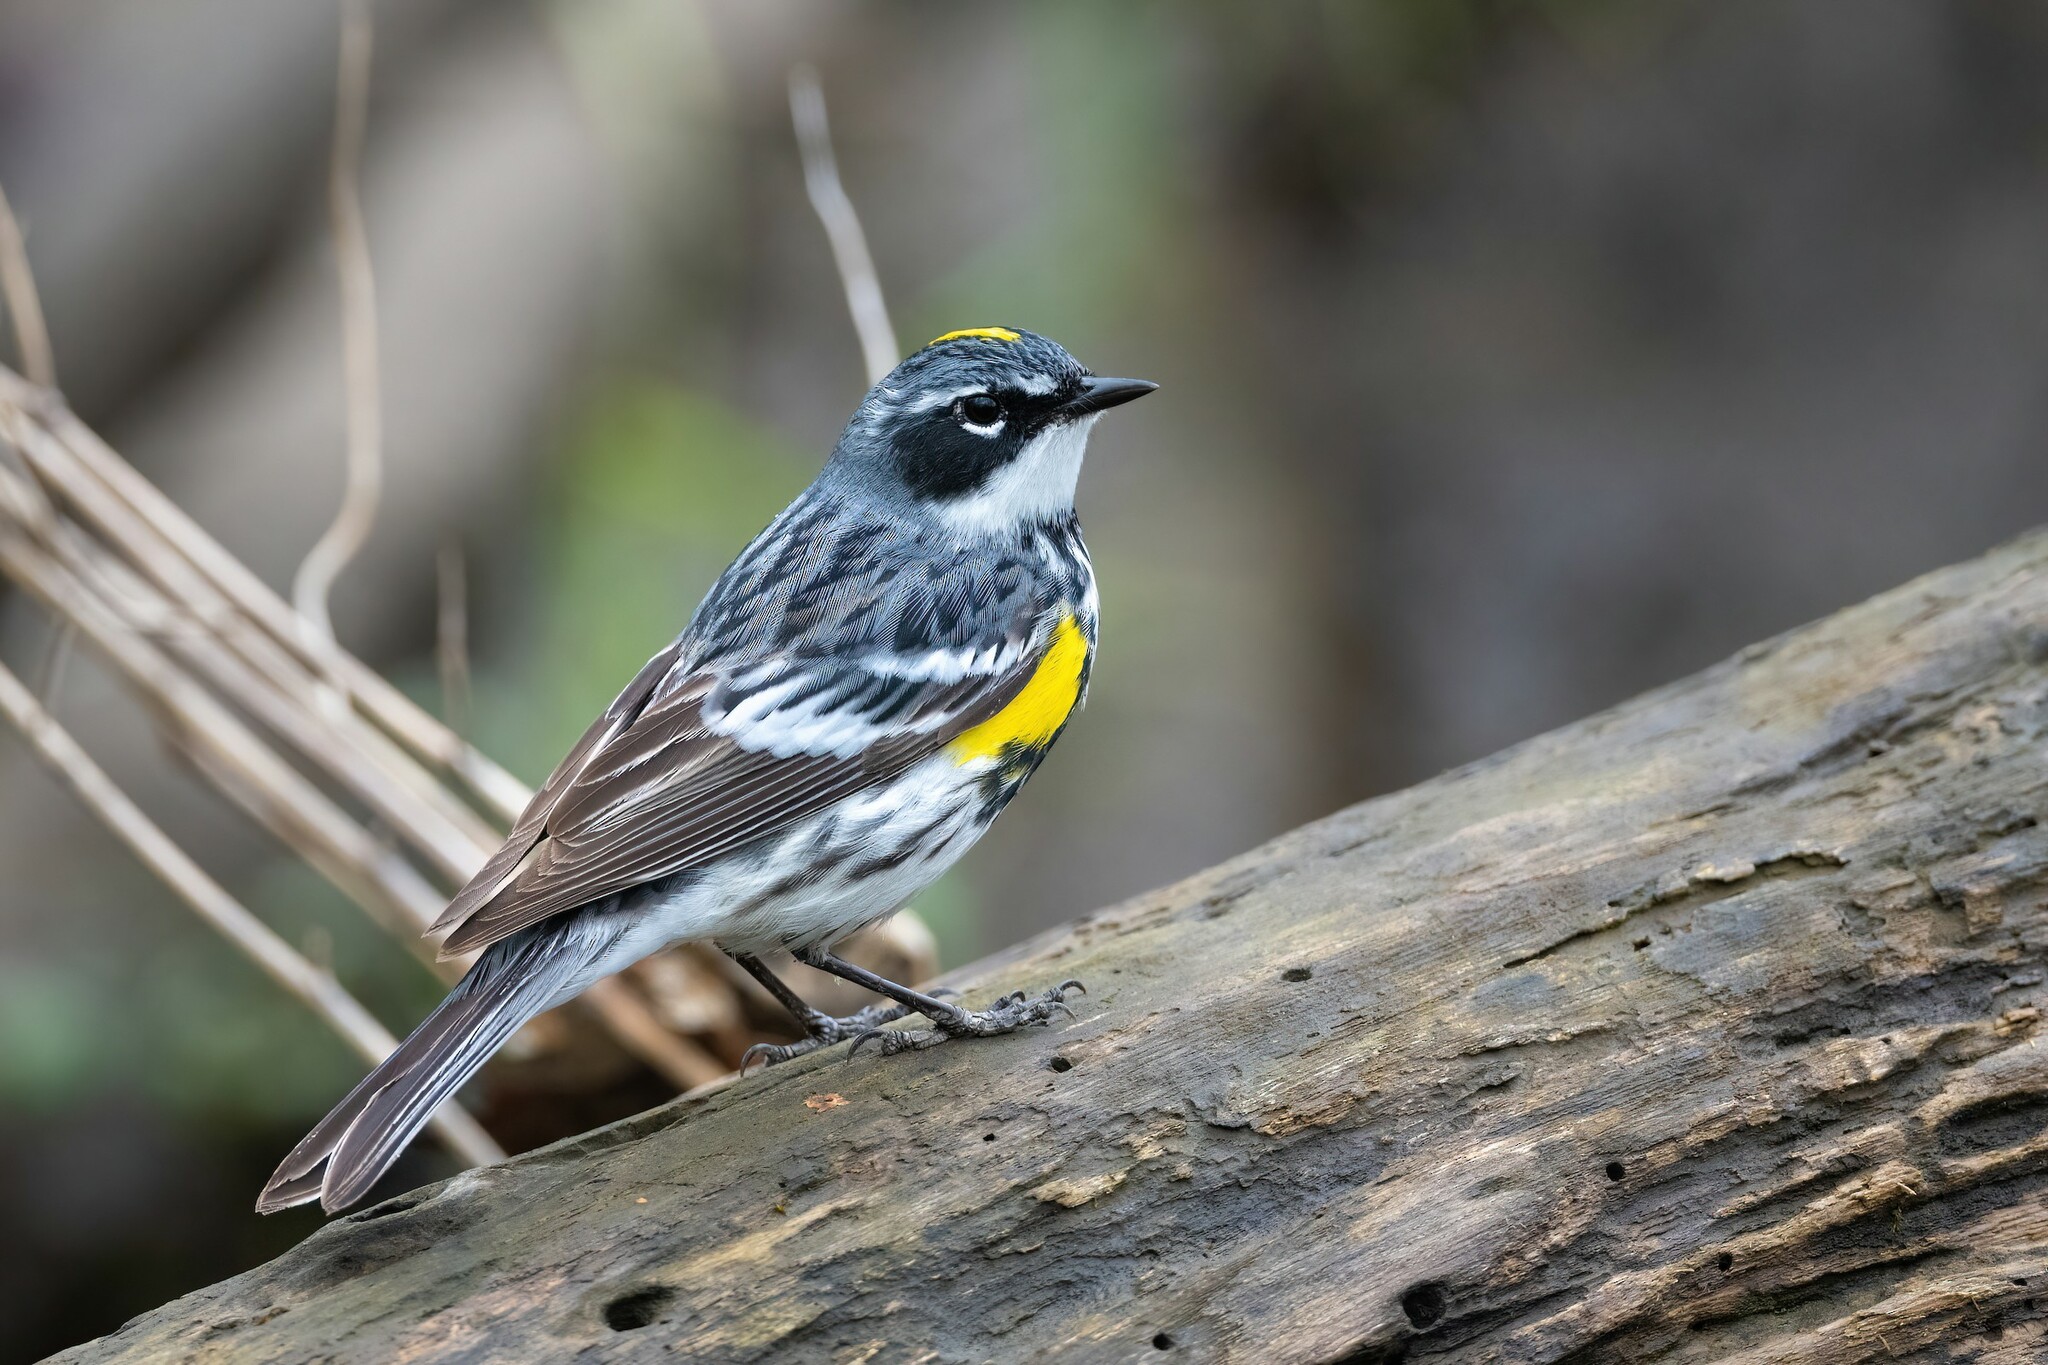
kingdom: Animalia
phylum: Chordata
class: Aves
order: Passeriformes
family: Parulidae
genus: Setophaga
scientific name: Setophaga coronata
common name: Myrtle warbler
